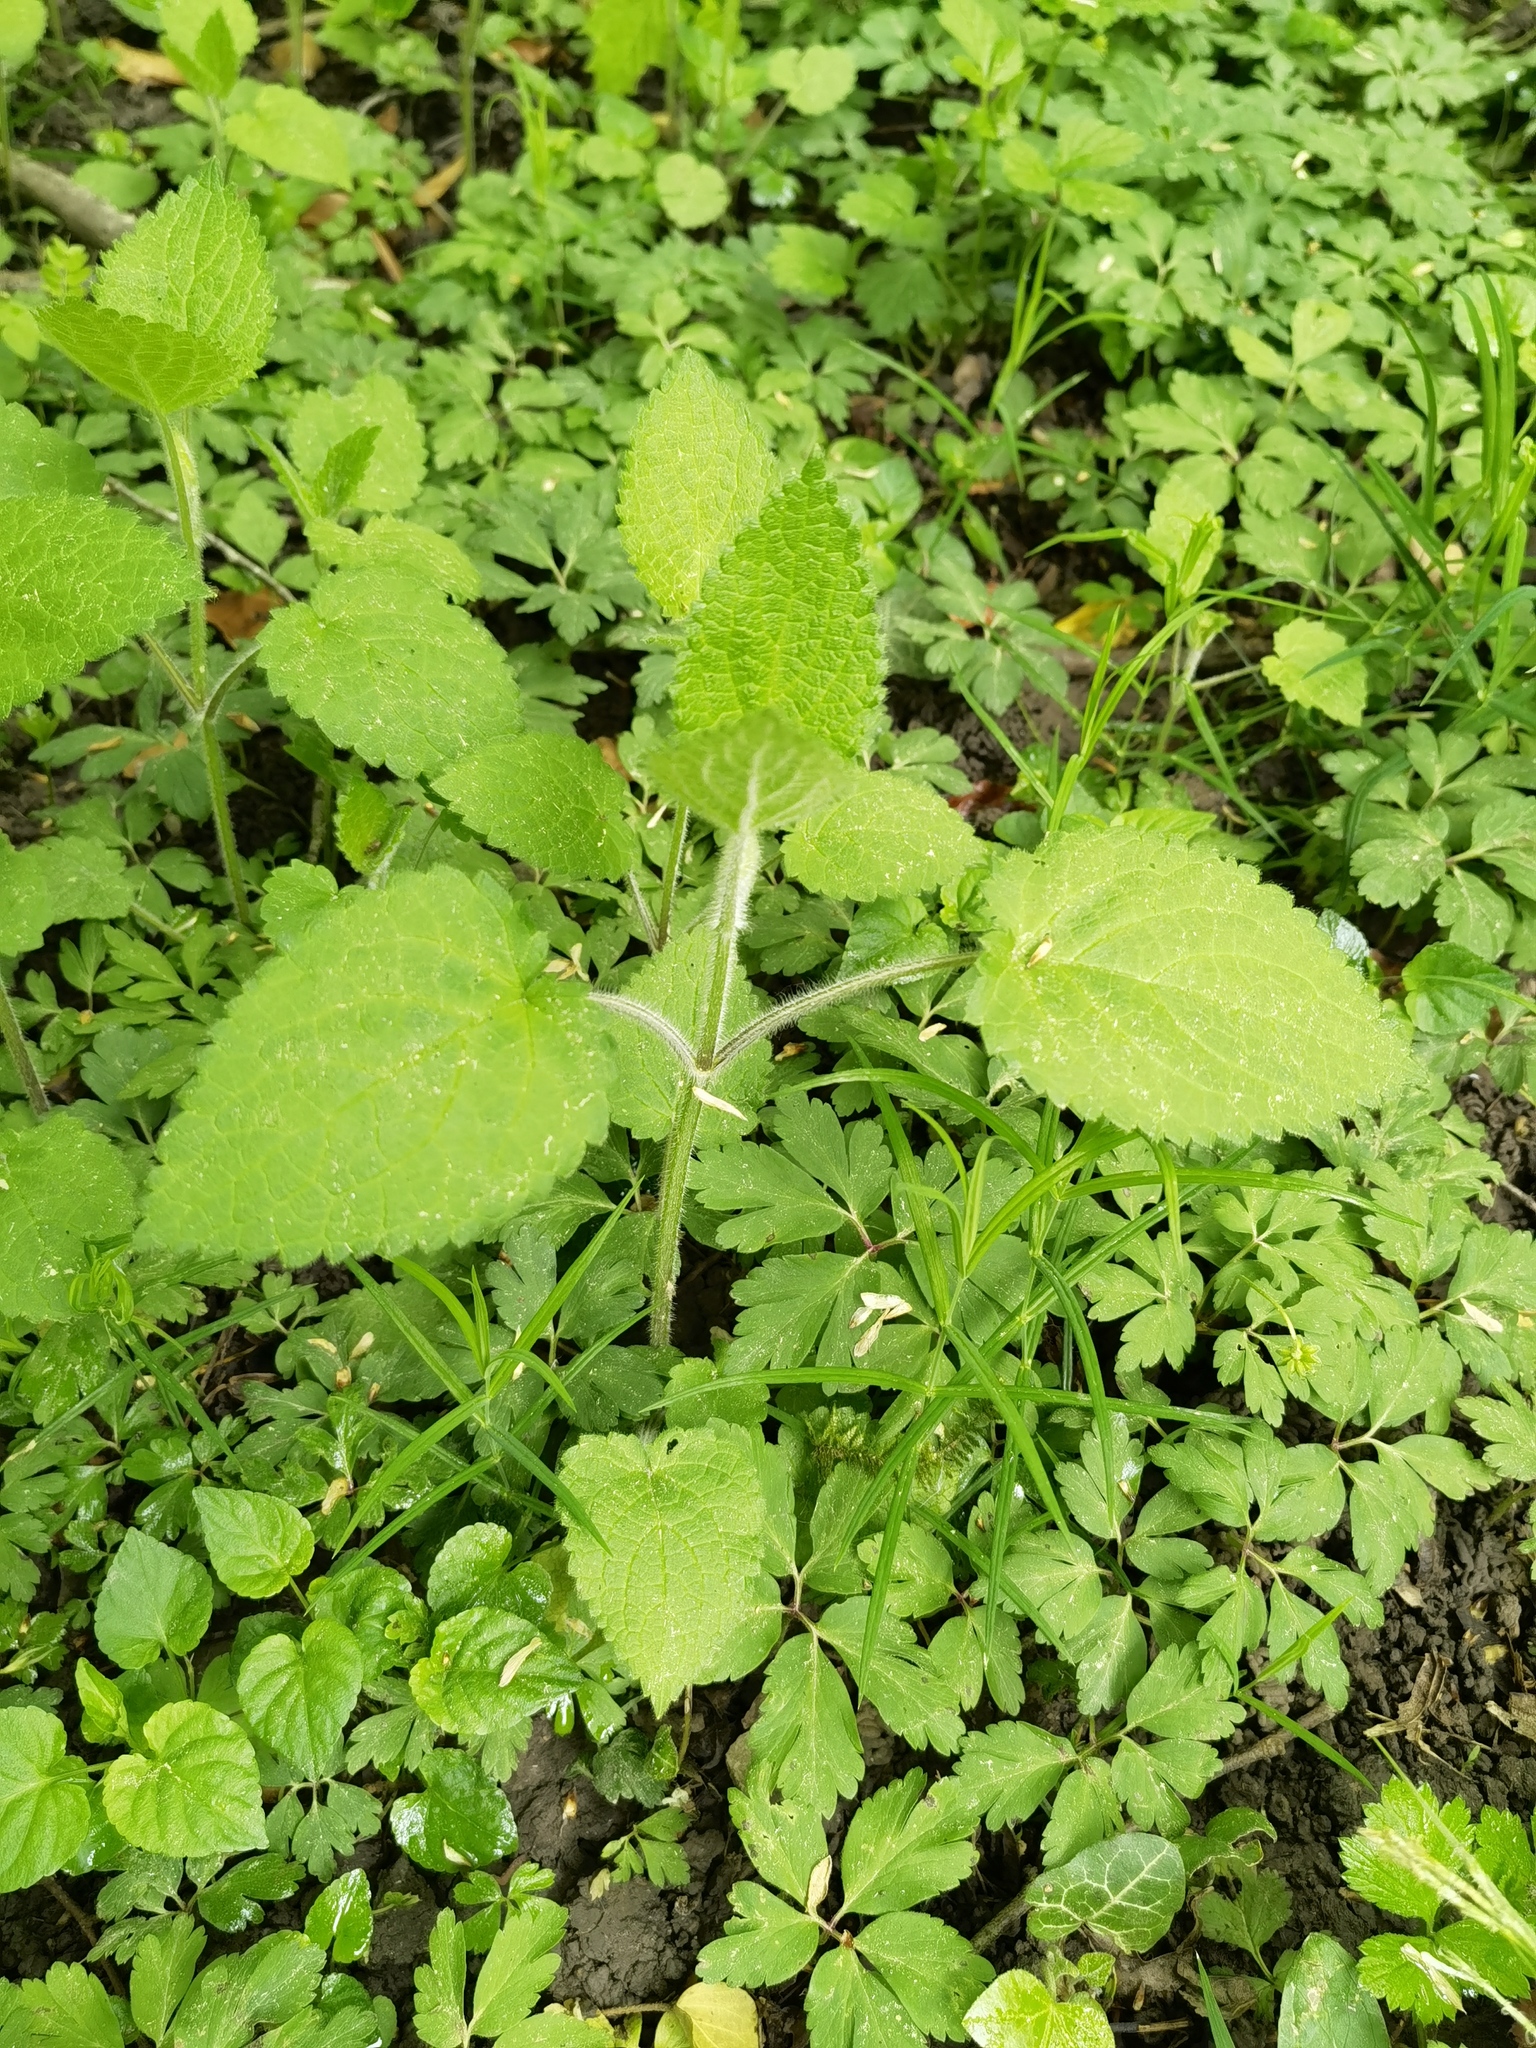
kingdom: Plantae
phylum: Tracheophyta
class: Magnoliopsida
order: Lamiales
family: Lamiaceae
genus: Stachys
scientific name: Stachys sylvatica
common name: Hedge woundwort
